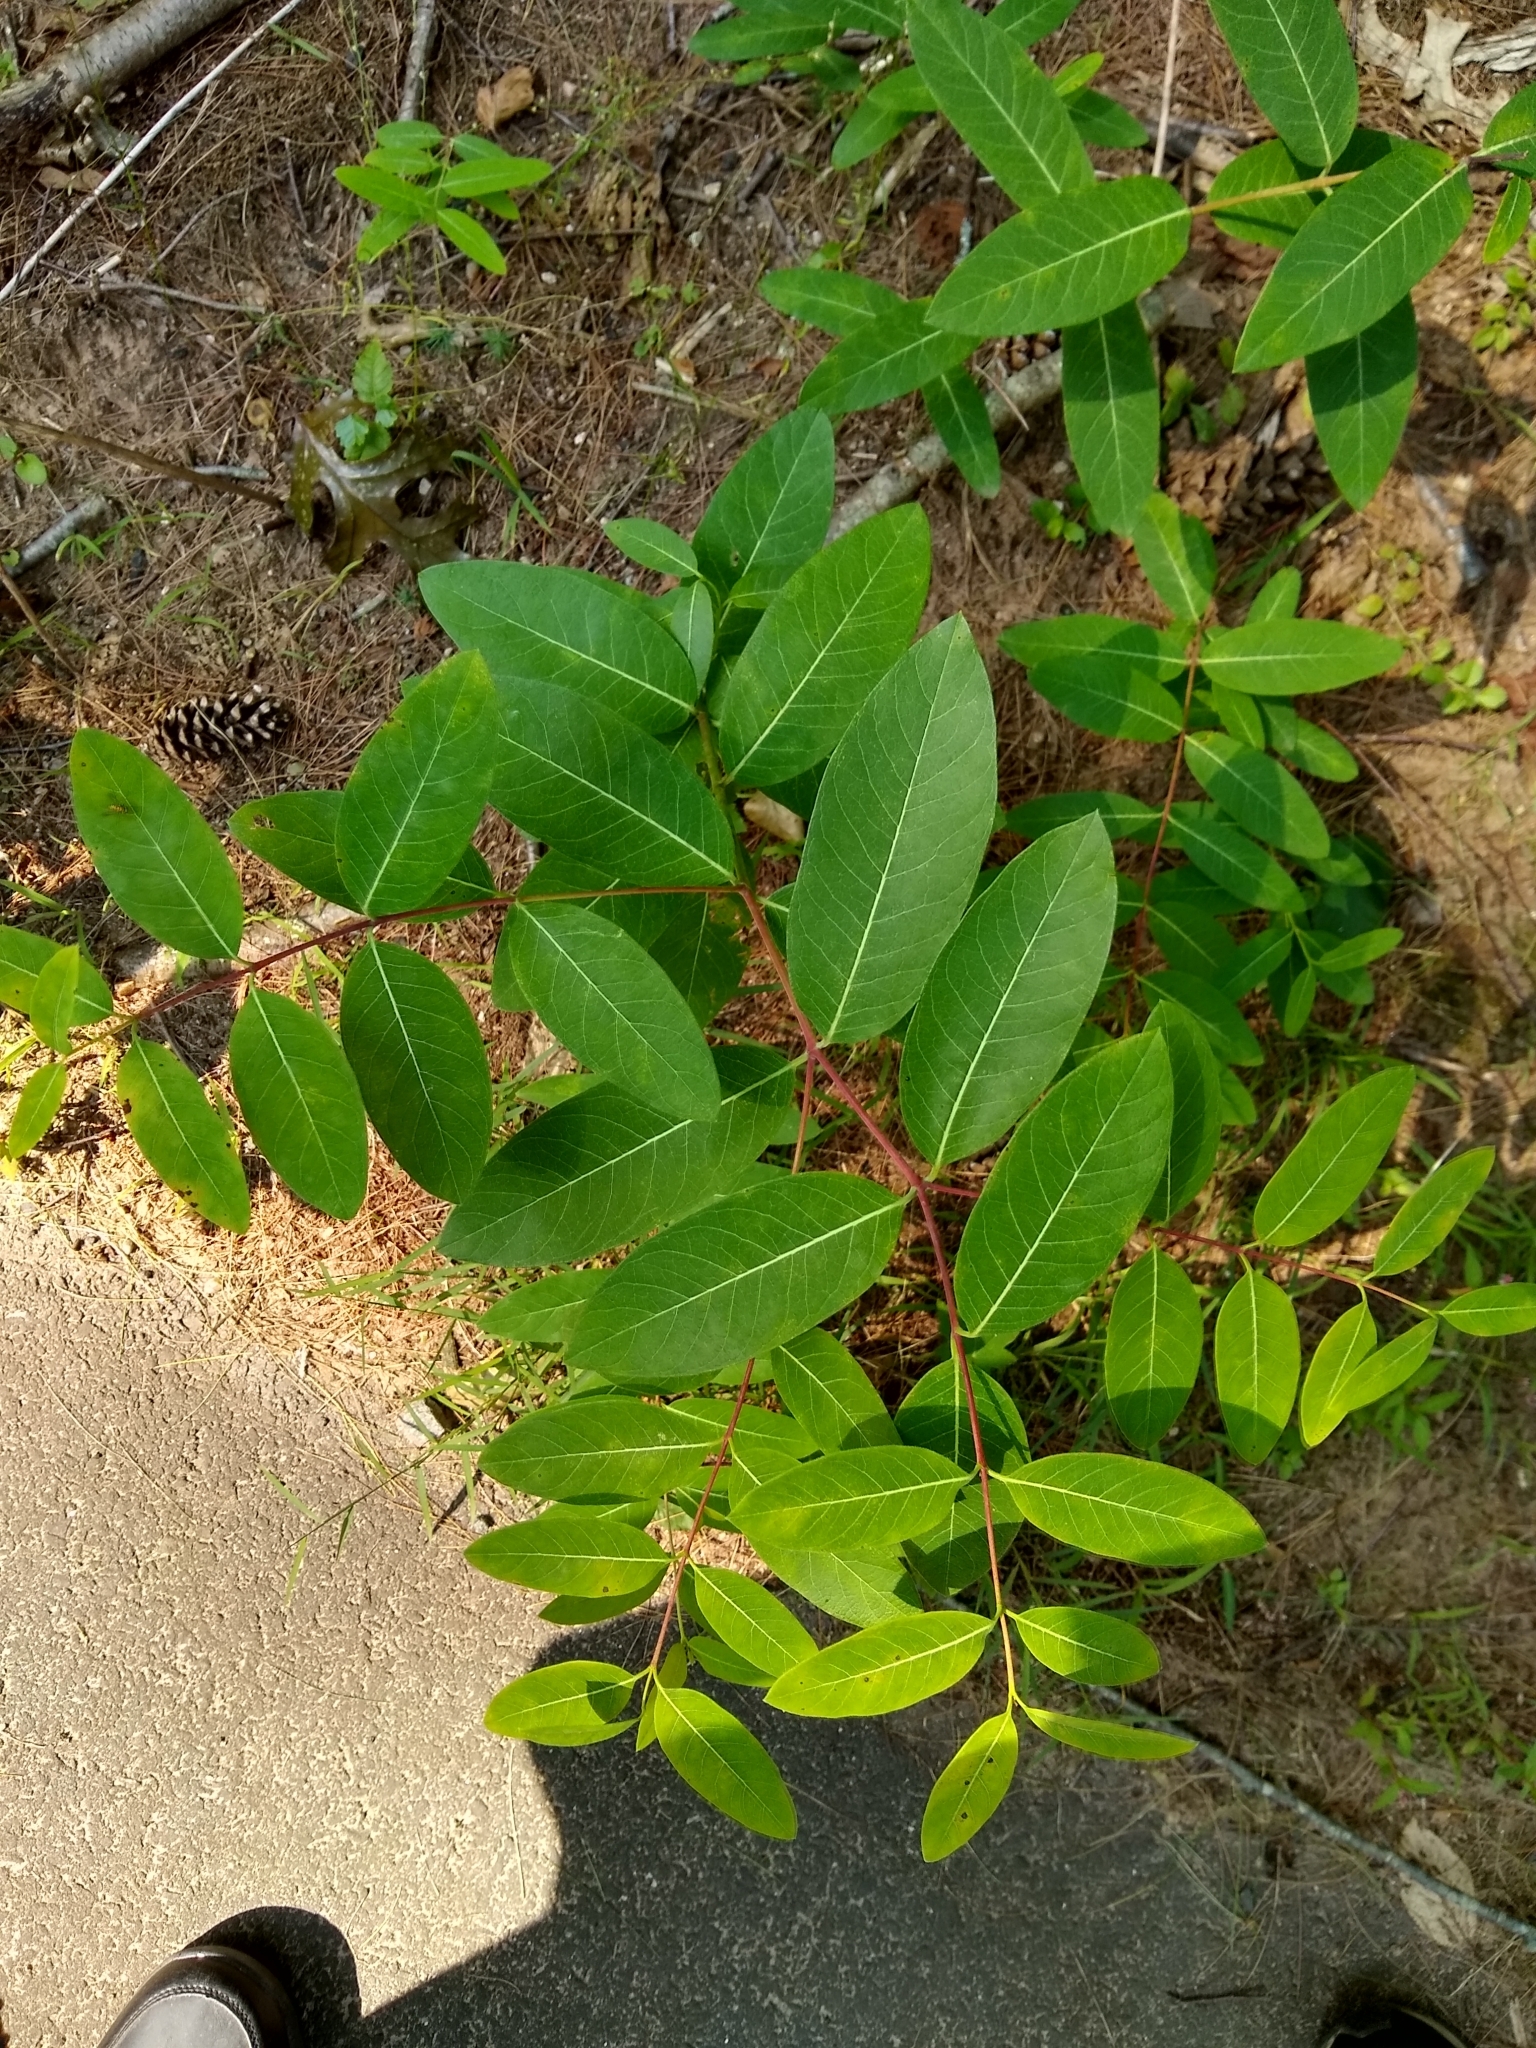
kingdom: Plantae
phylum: Tracheophyta
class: Magnoliopsida
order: Gentianales
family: Apocynaceae
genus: Apocynum
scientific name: Apocynum androsaemifolium
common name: Spreading dogbane
